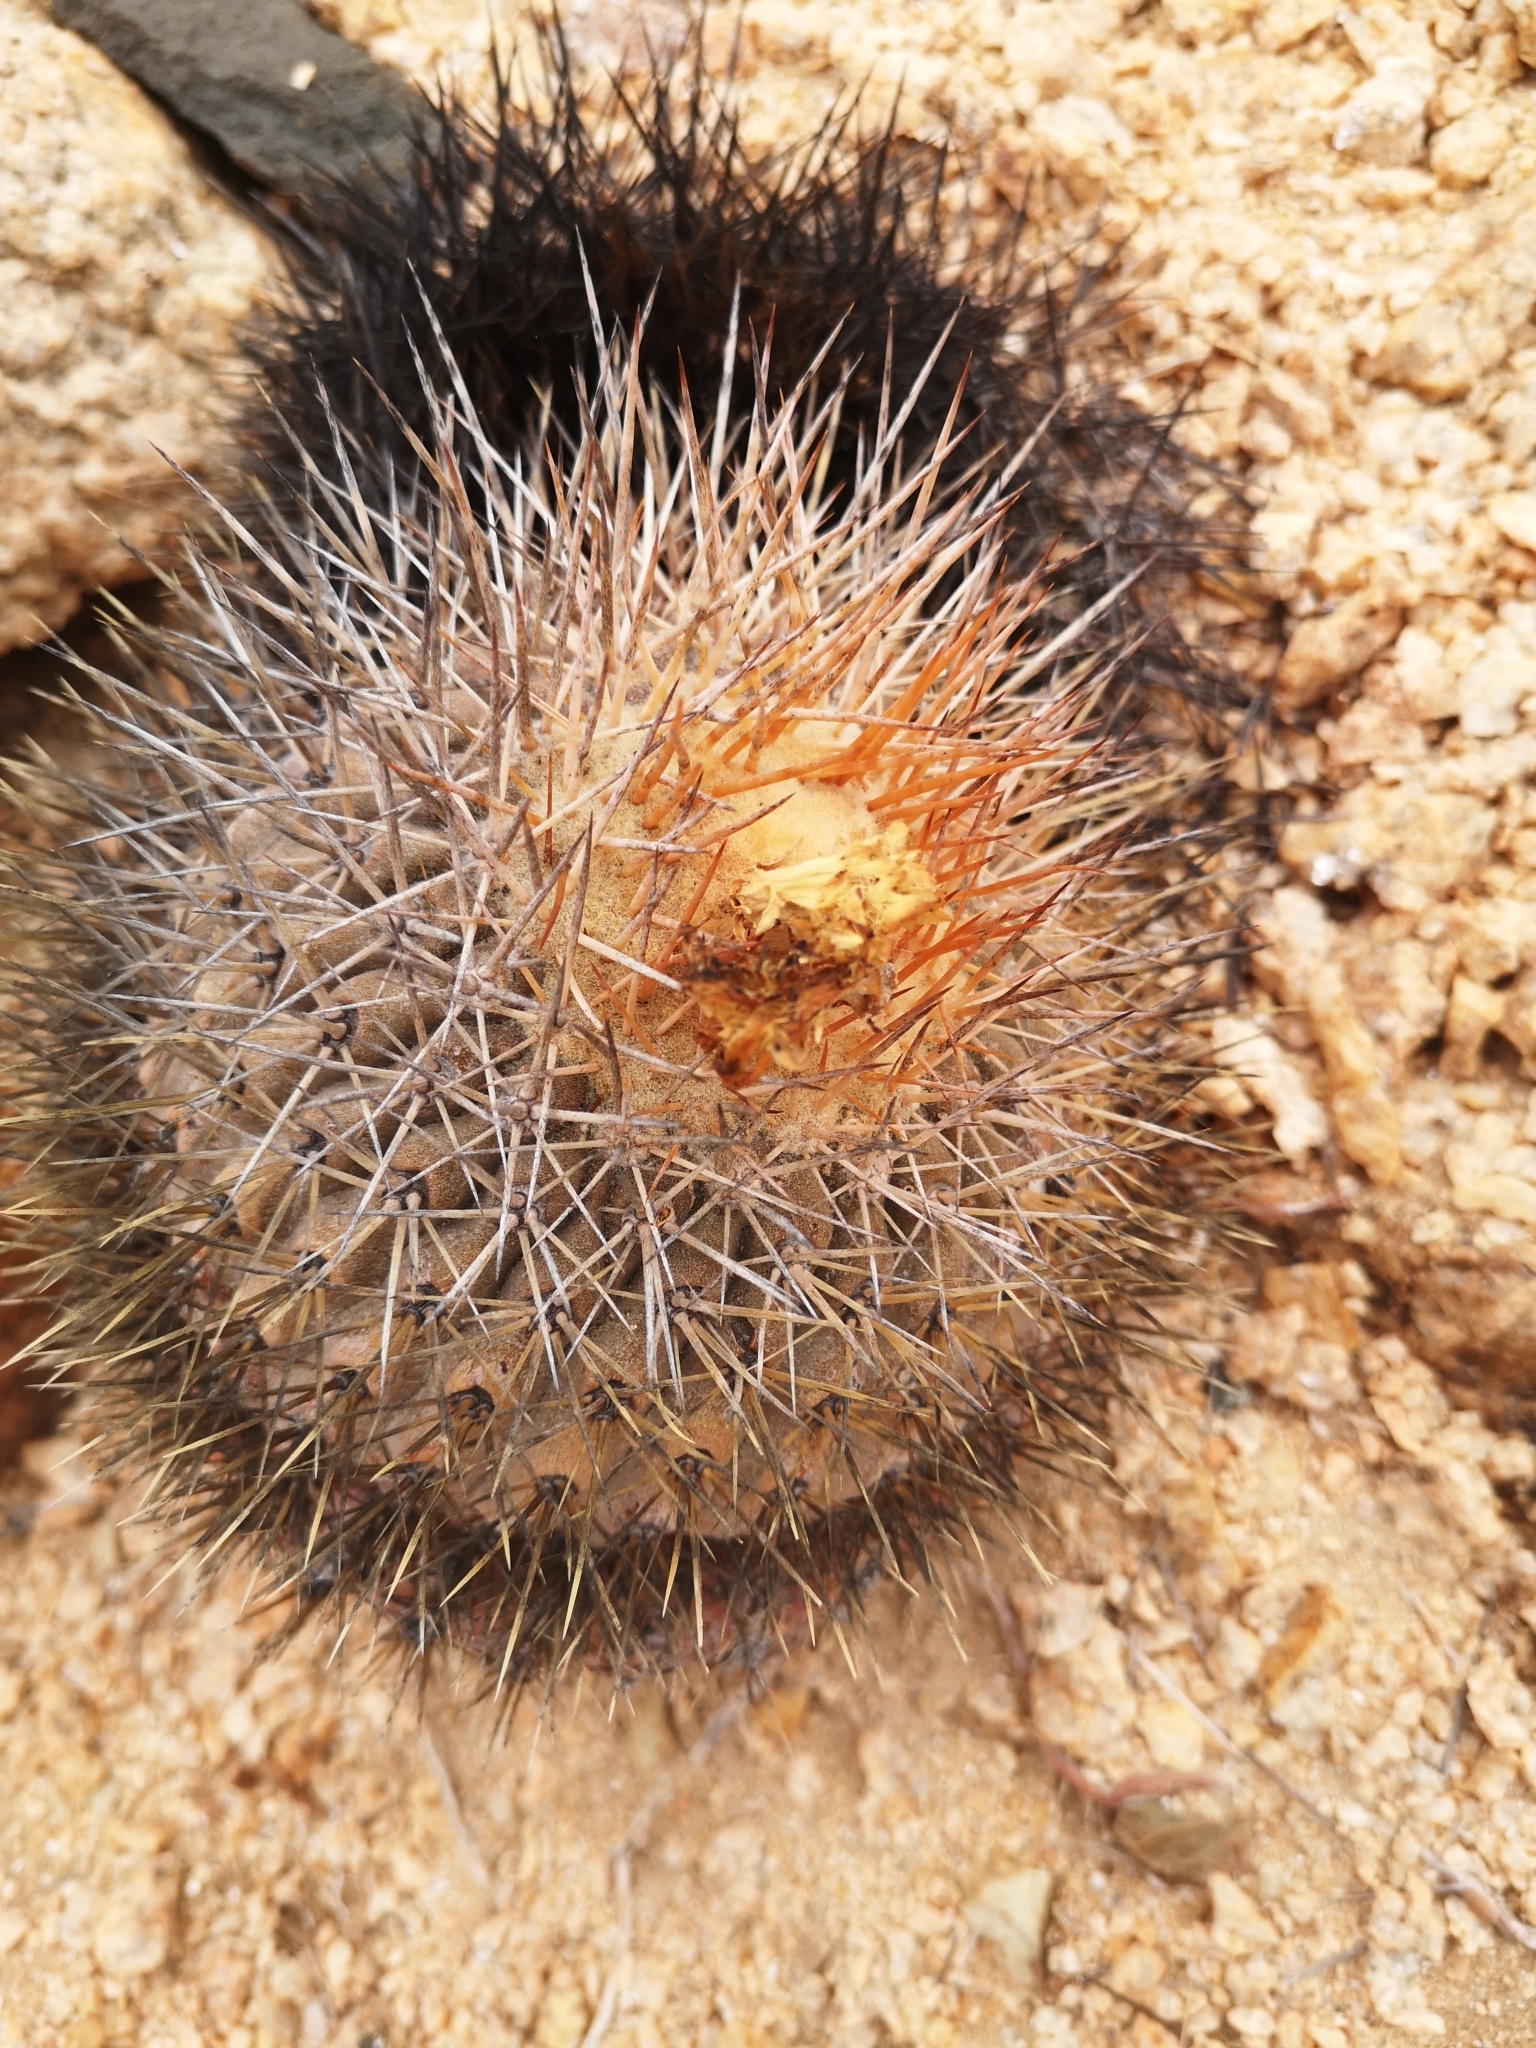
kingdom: Plantae
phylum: Tracheophyta
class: Magnoliopsida
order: Caryophyllales
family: Cactaceae
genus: Copiapoa
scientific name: Copiapoa serpentisulcata
